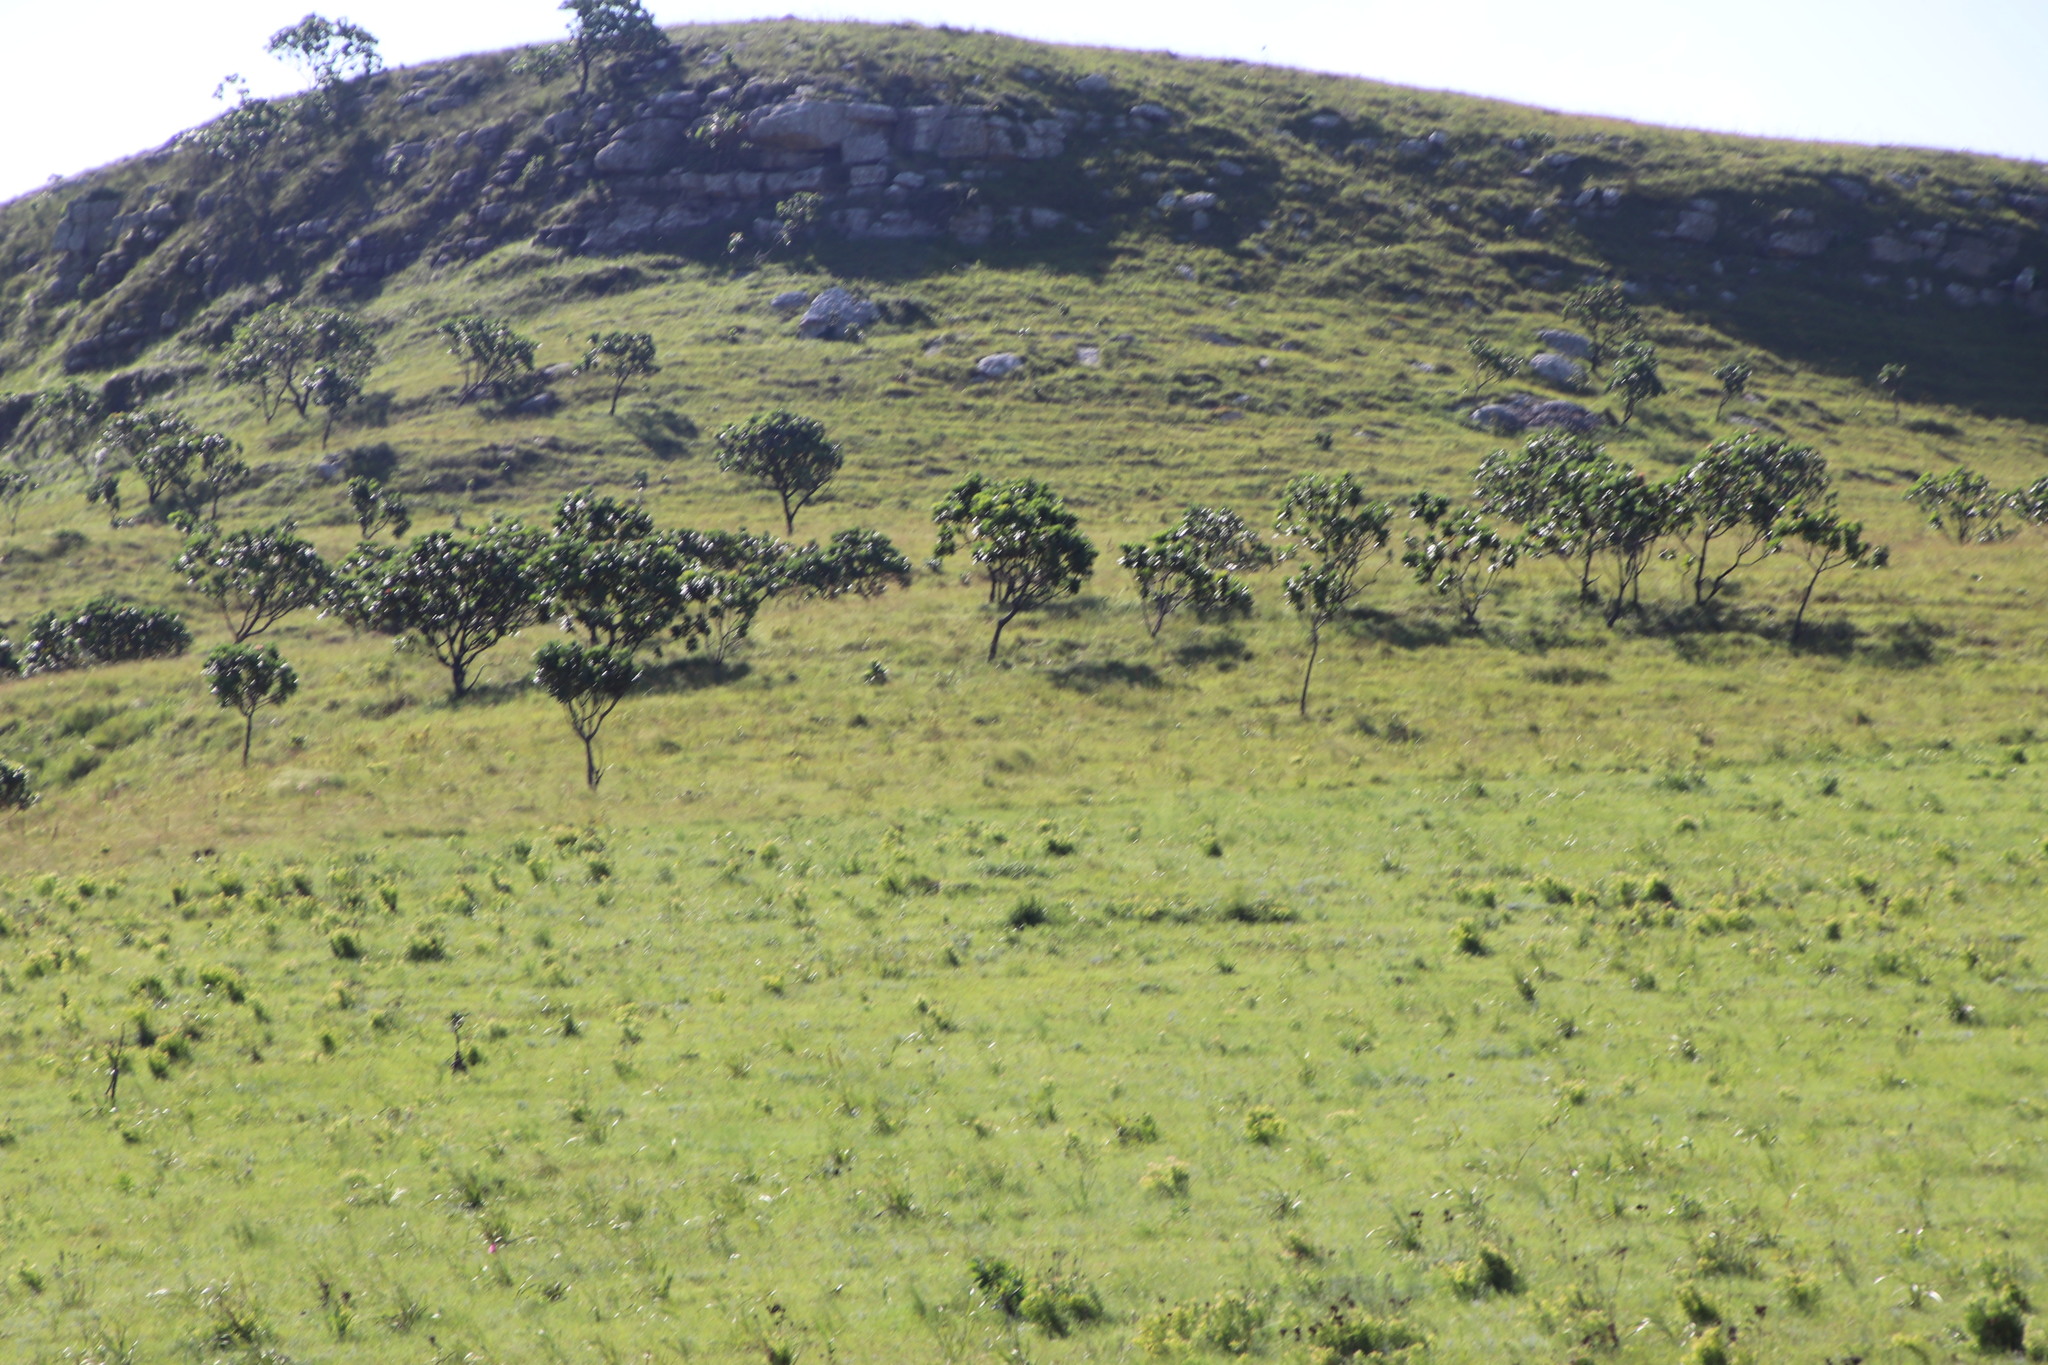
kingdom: Plantae
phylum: Tracheophyta
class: Magnoliopsida
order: Proteales
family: Proteaceae
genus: Protea
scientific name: Protea roupelliae
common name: Silver sugarbush
